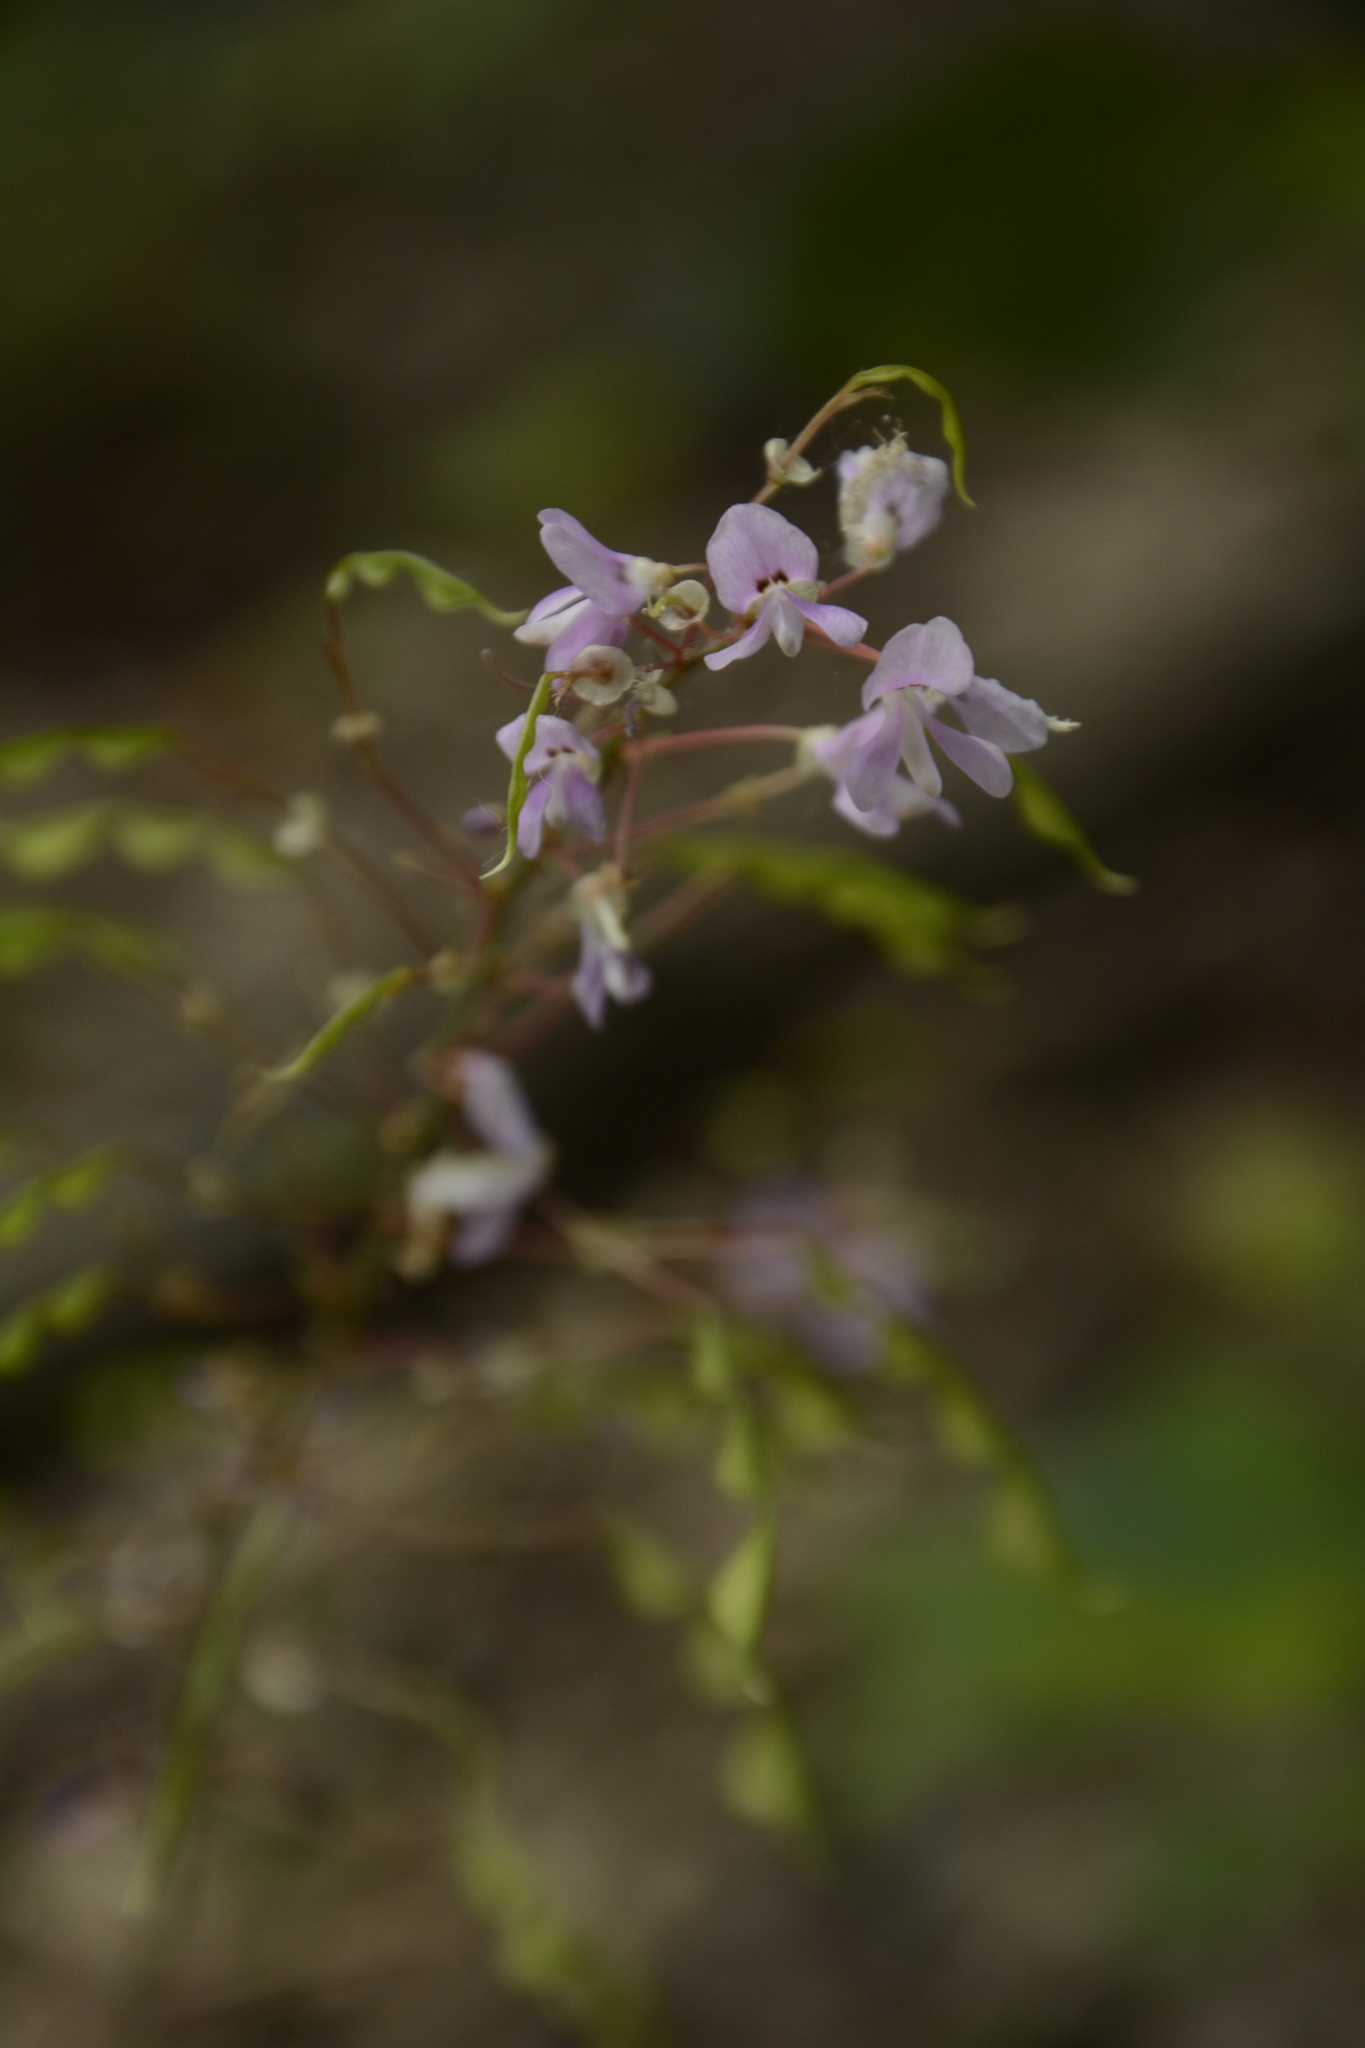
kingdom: Plantae
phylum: Tracheophyta
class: Magnoliopsida
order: Fabales
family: Fabaceae
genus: Hylodesmum
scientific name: Hylodesmum nudiflorum
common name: Bare-stemmed tick-trefoil
